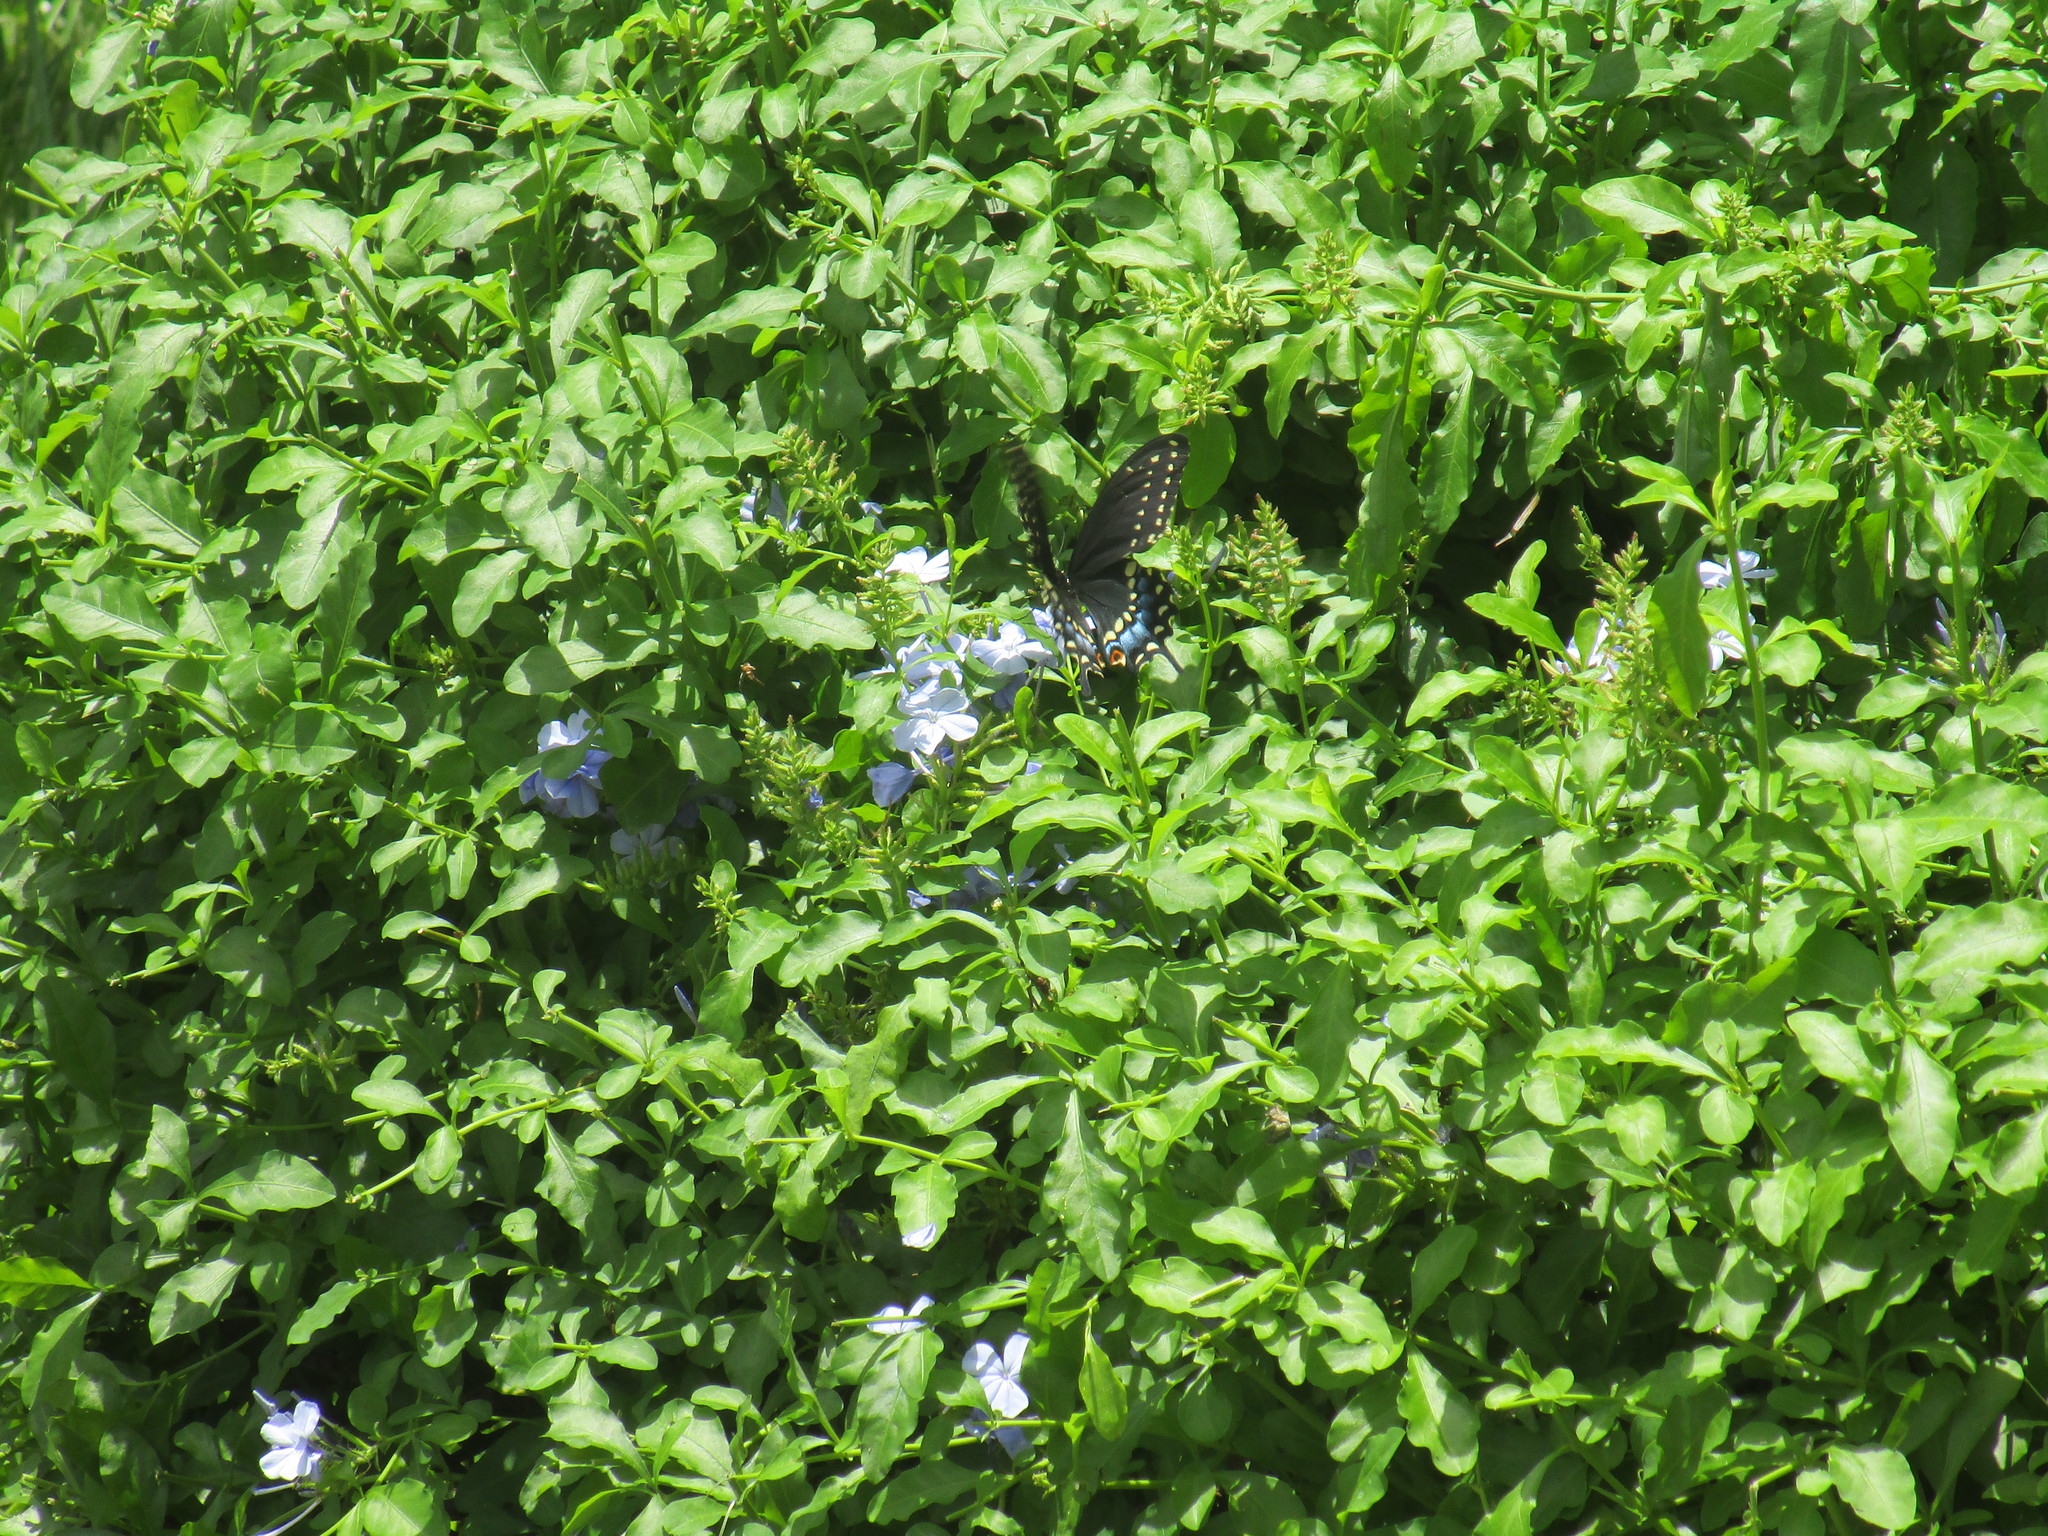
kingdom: Animalia
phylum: Arthropoda
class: Insecta
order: Lepidoptera
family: Papilionidae
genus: Papilio
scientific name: Papilio polyxenes
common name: Black swallowtail
